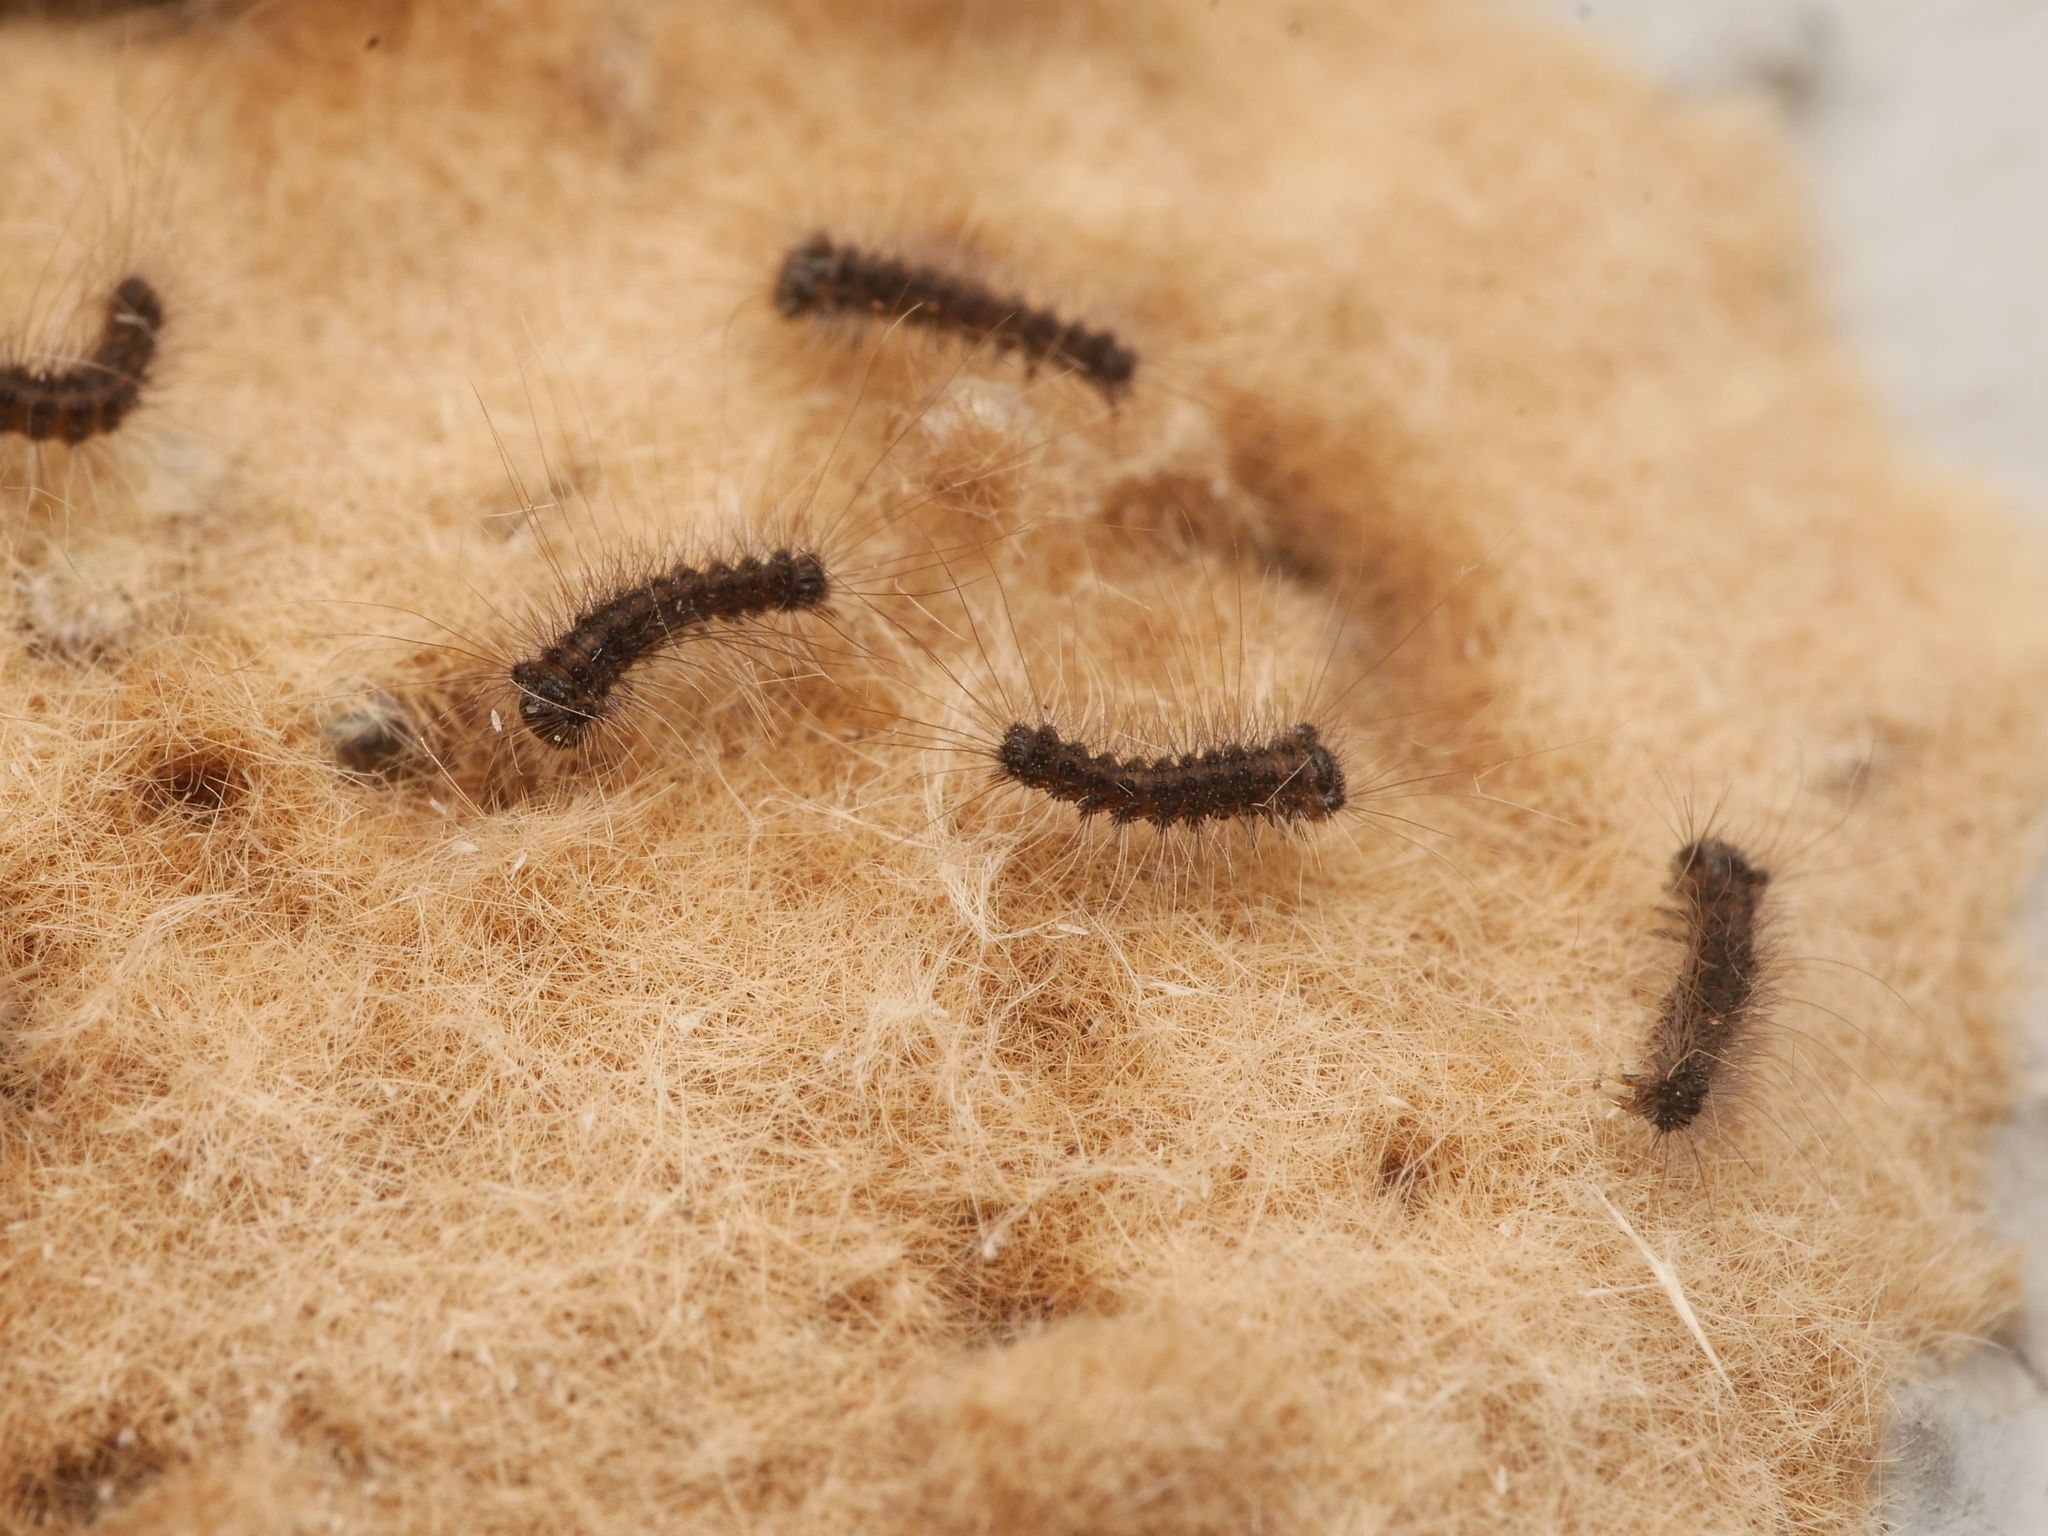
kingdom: Animalia
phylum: Arthropoda
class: Insecta
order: Lepidoptera
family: Erebidae
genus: Lymantria
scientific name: Lymantria dispar
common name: Gypsy moth
